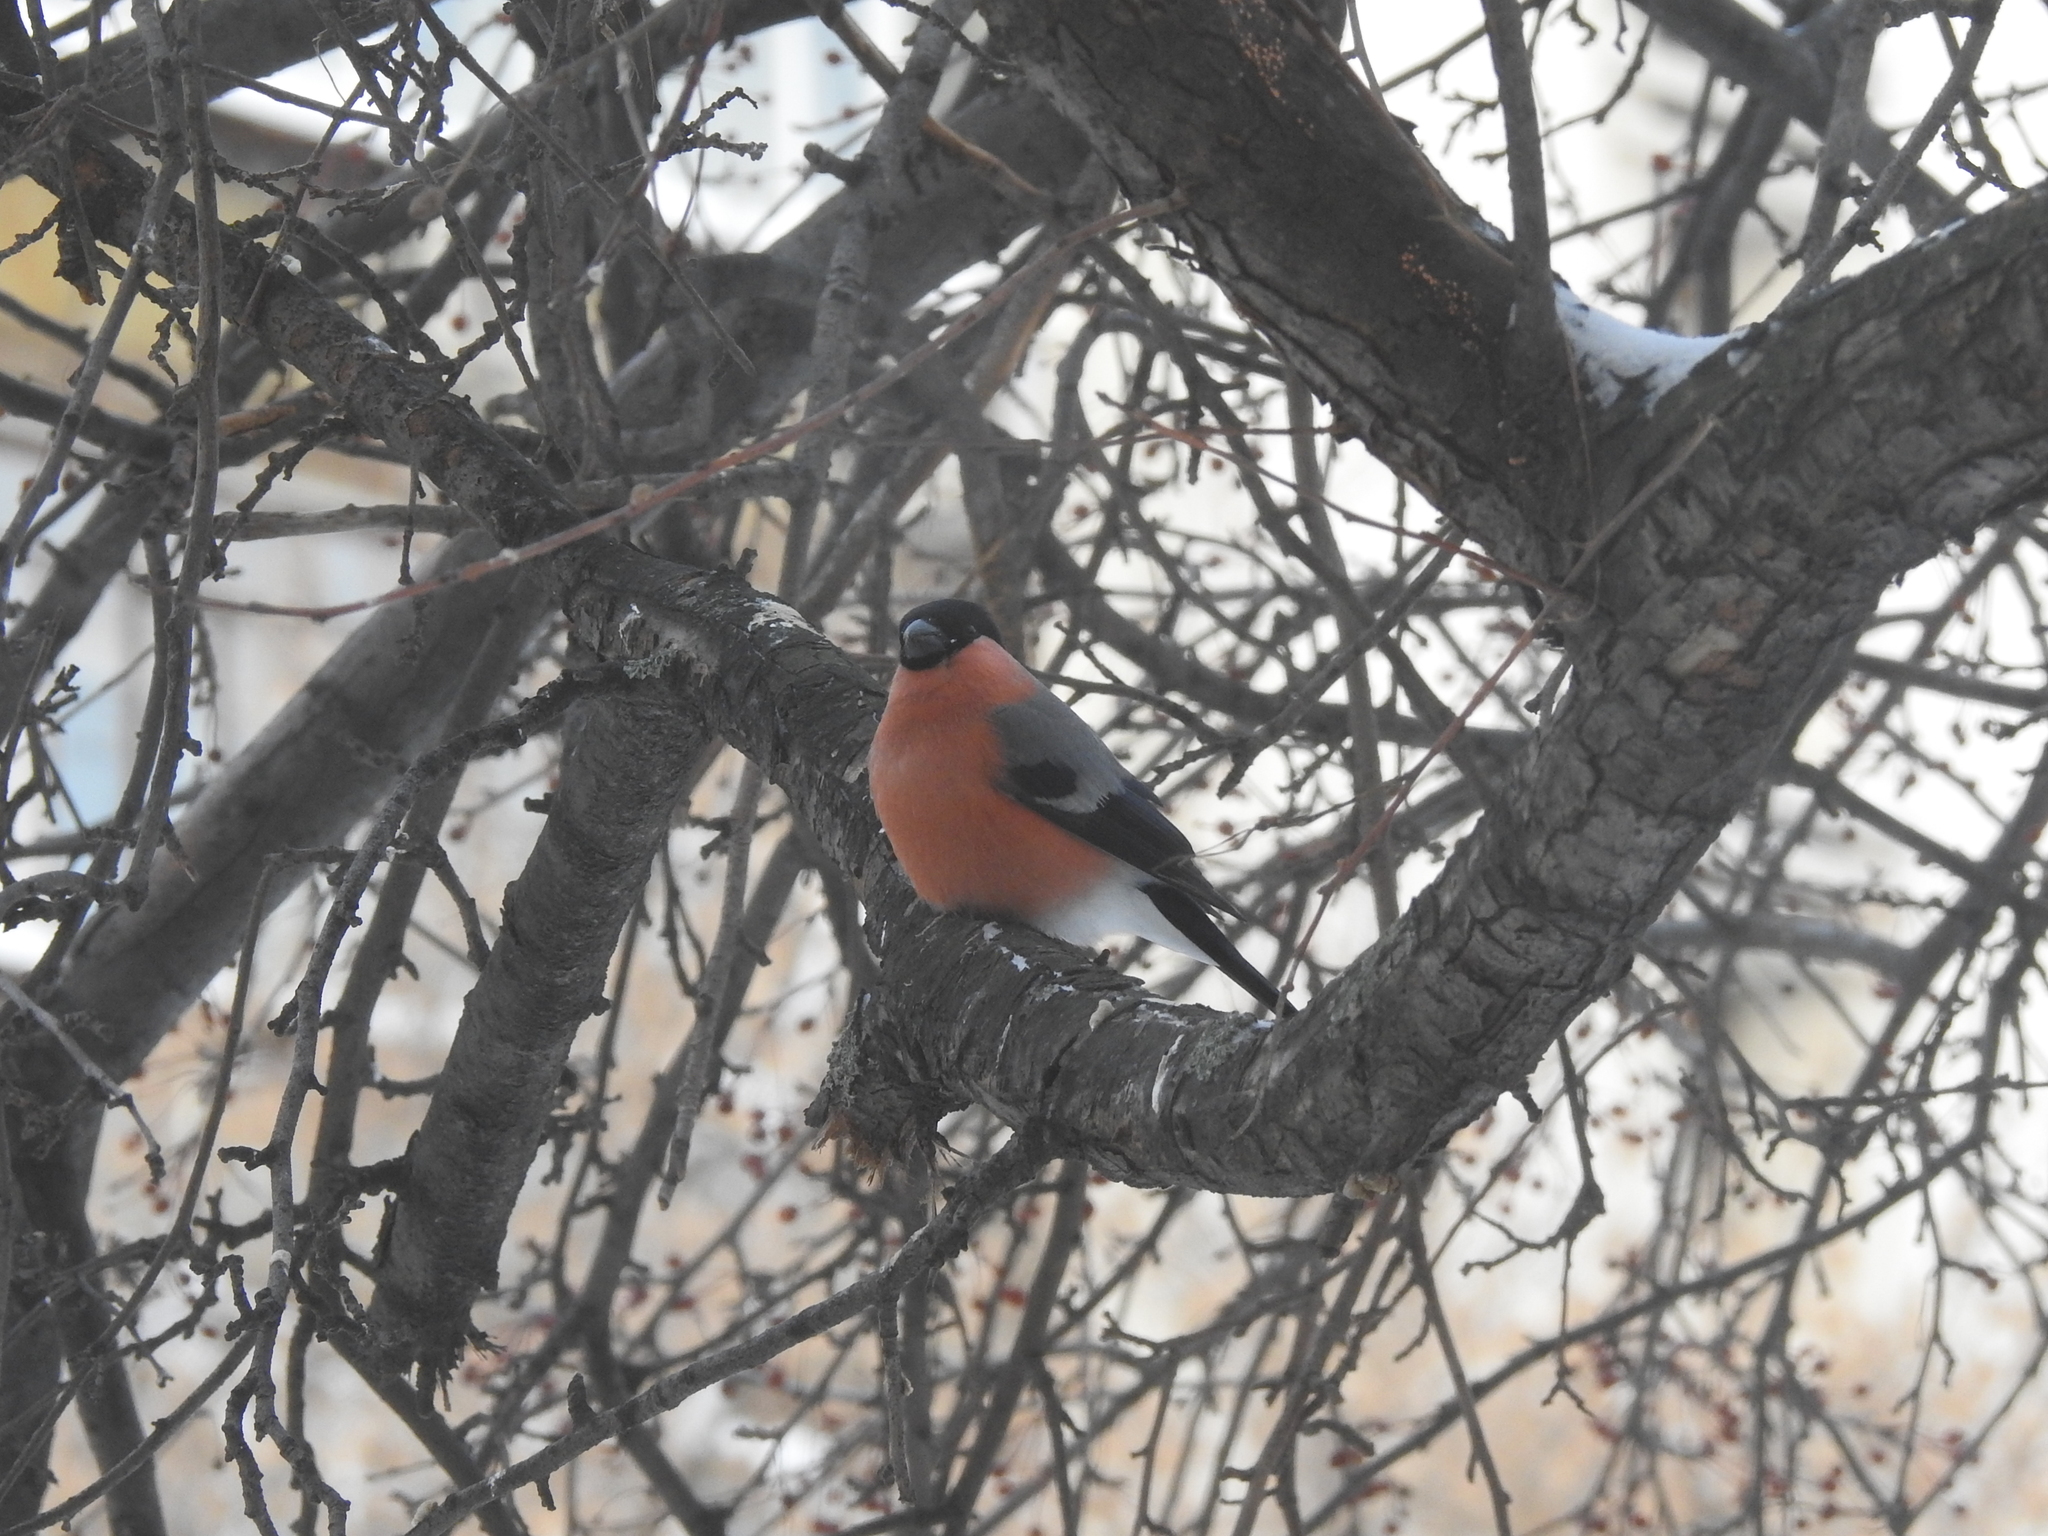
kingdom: Animalia
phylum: Chordata
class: Aves
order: Passeriformes
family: Fringillidae
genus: Pyrrhula
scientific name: Pyrrhula pyrrhula
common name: Eurasian bullfinch
